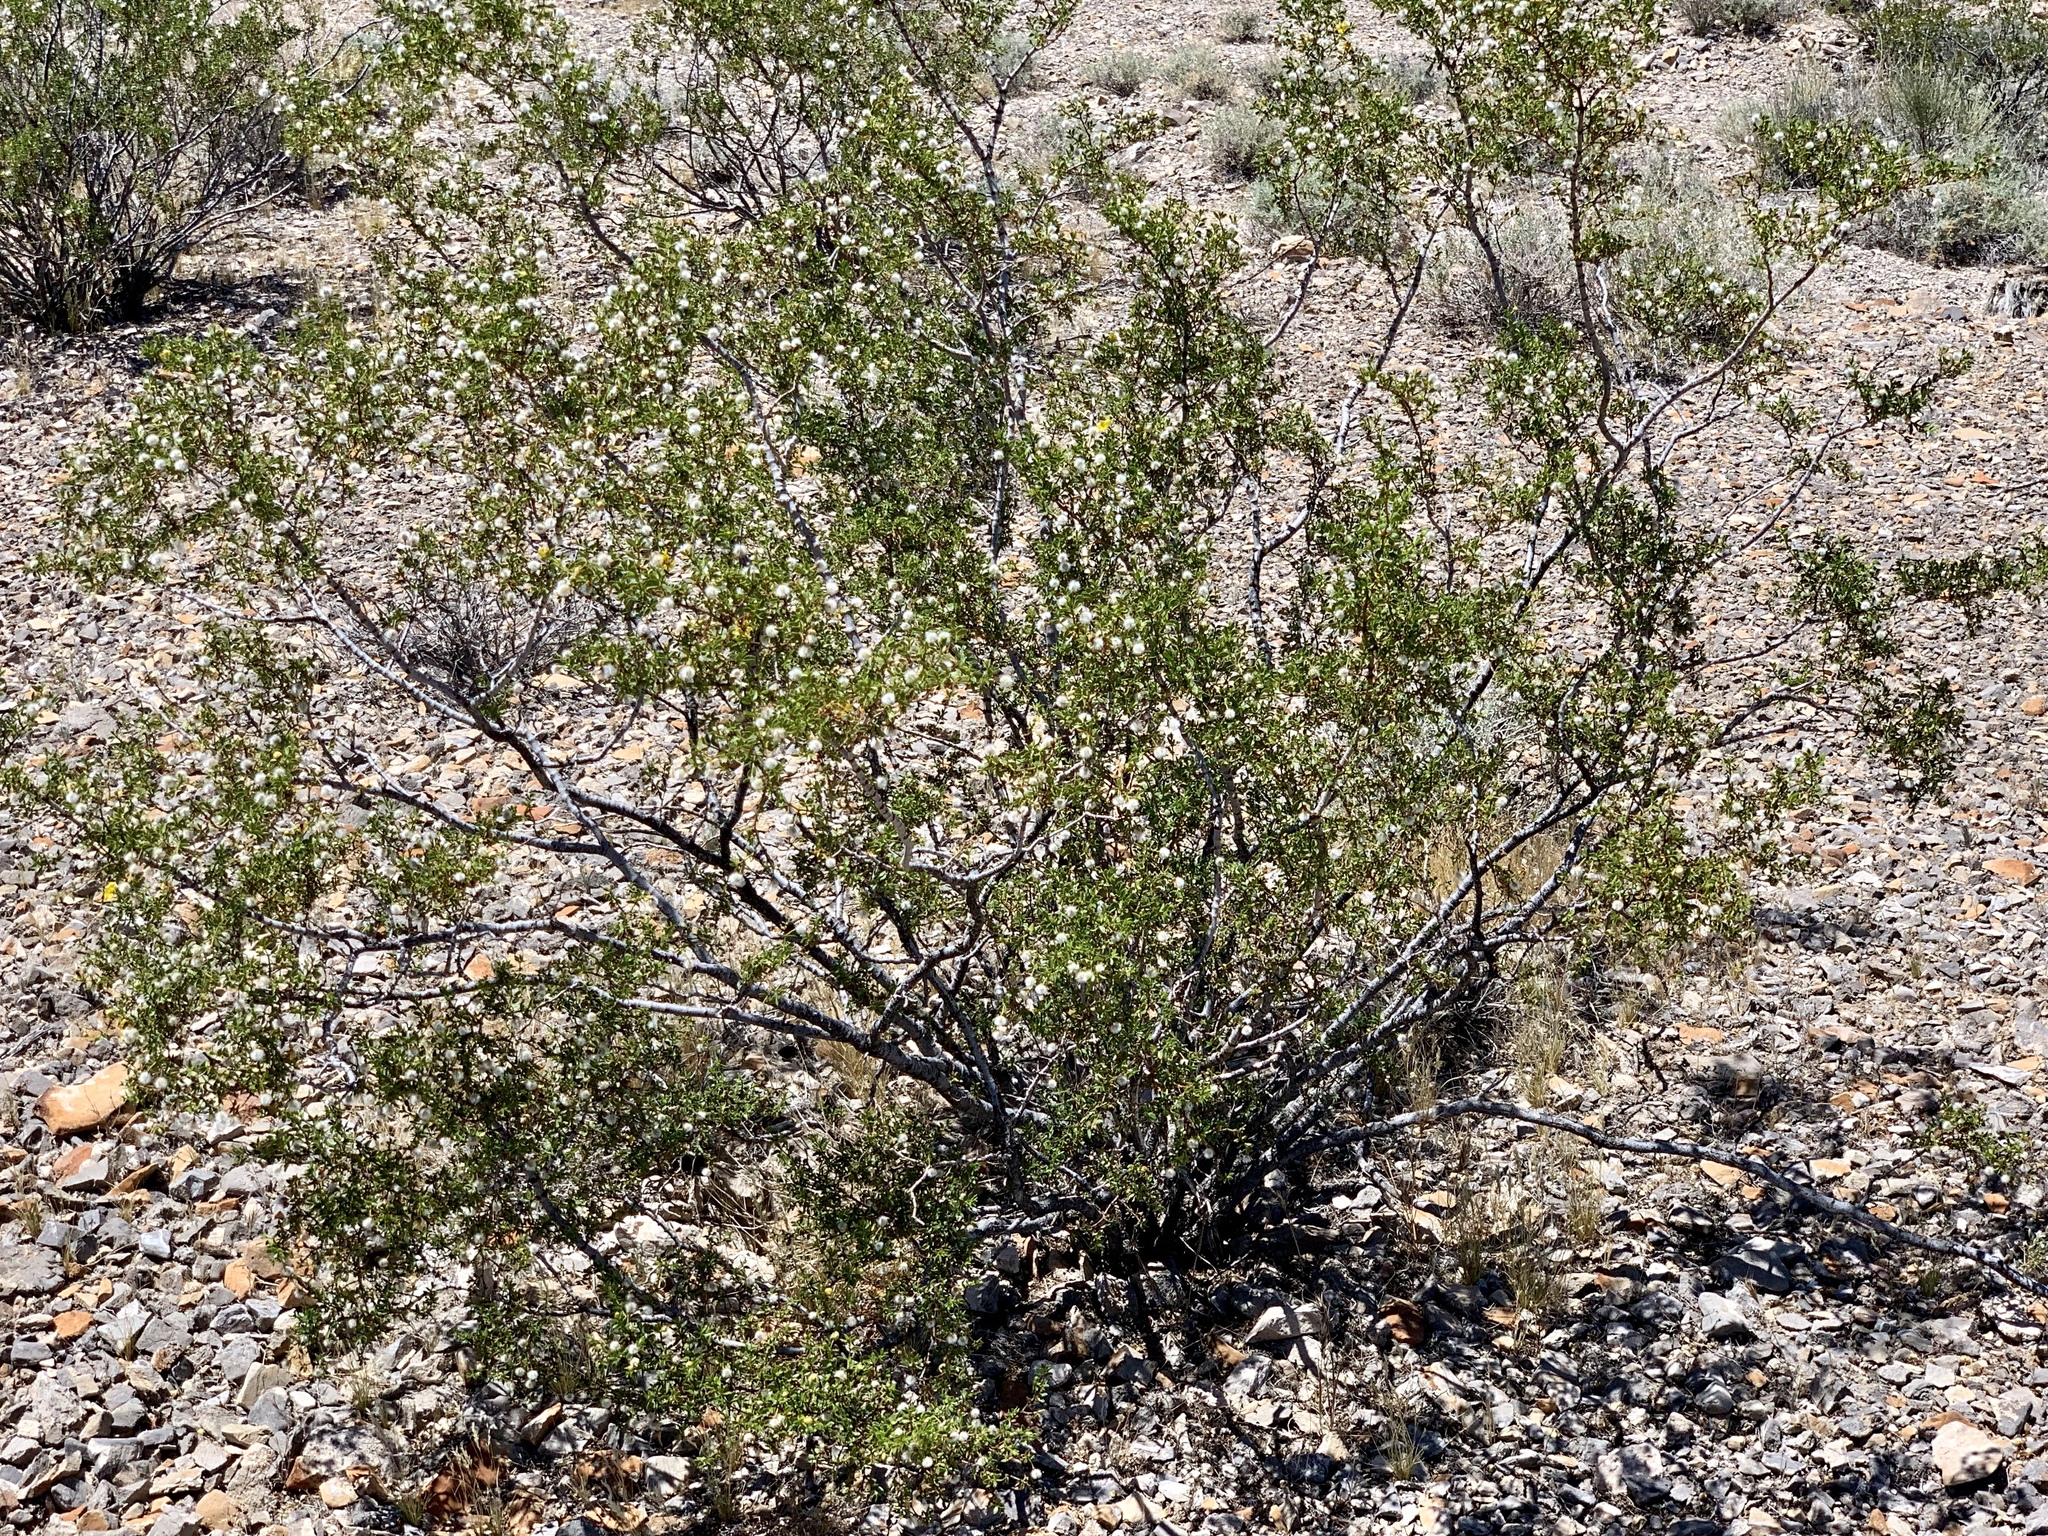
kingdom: Plantae
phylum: Tracheophyta
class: Magnoliopsida
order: Zygophyllales
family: Zygophyllaceae
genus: Larrea
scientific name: Larrea tridentata
